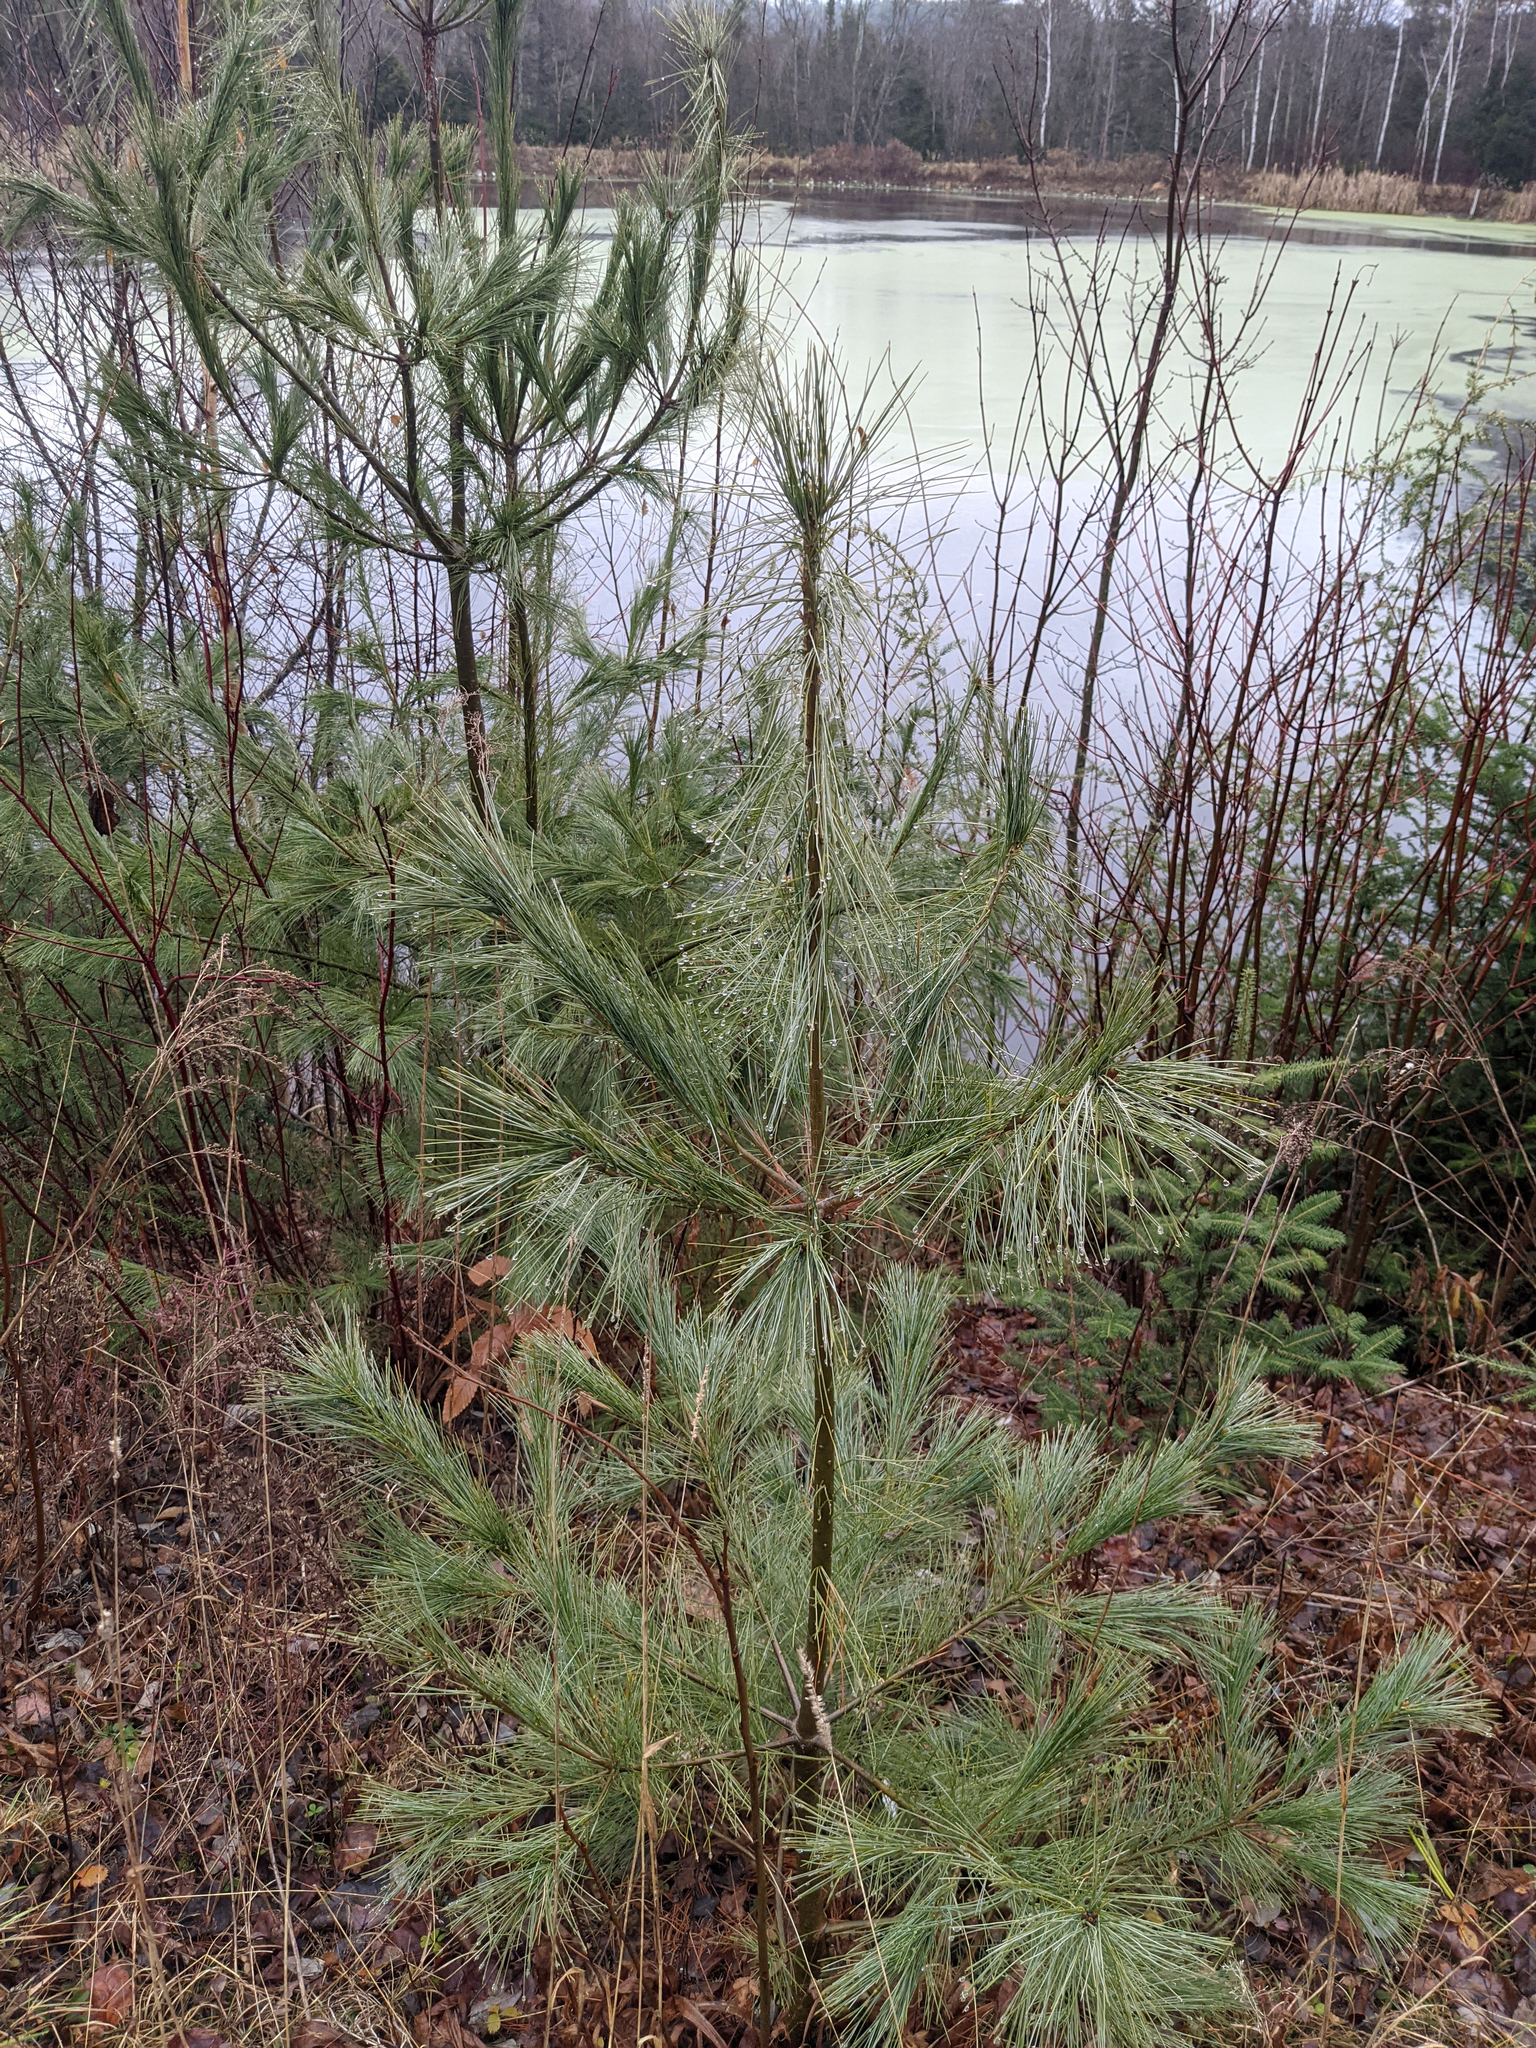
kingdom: Plantae
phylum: Tracheophyta
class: Pinopsida
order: Pinales
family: Pinaceae
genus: Pinus
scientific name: Pinus strobus
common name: Weymouth pine
